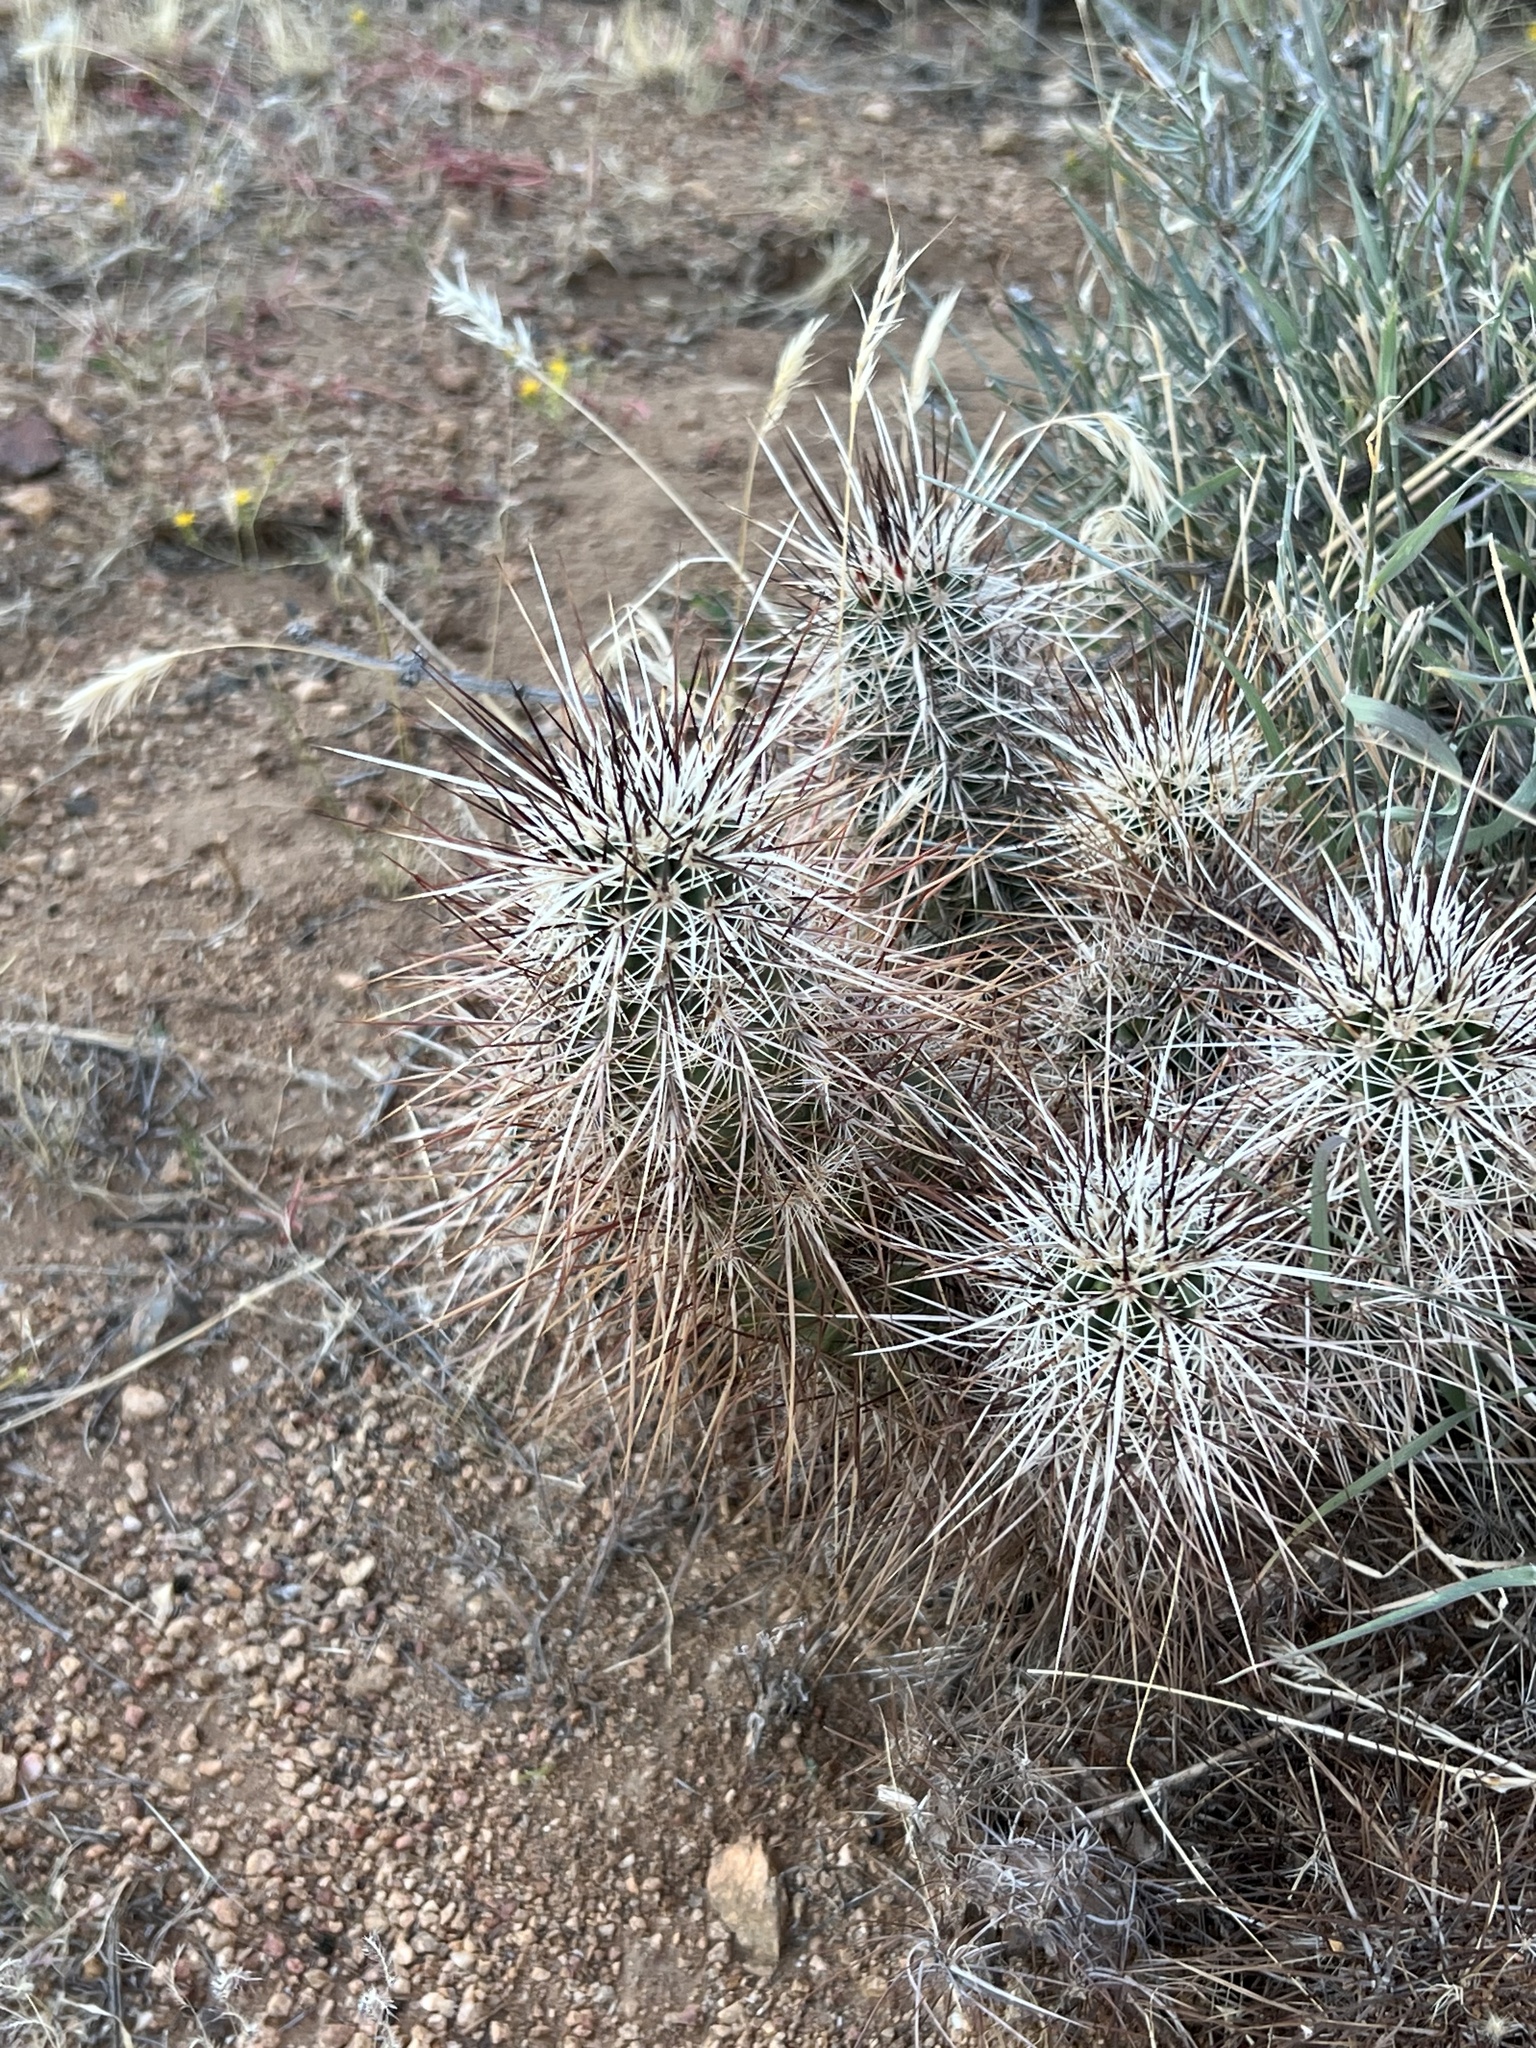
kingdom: Plantae
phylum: Tracheophyta
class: Magnoliopsida
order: Caryophyllales
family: Cactaceae
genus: Echinocereus
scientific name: Echinocereus engelmannii
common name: Engelmann's hedgehog cactus
